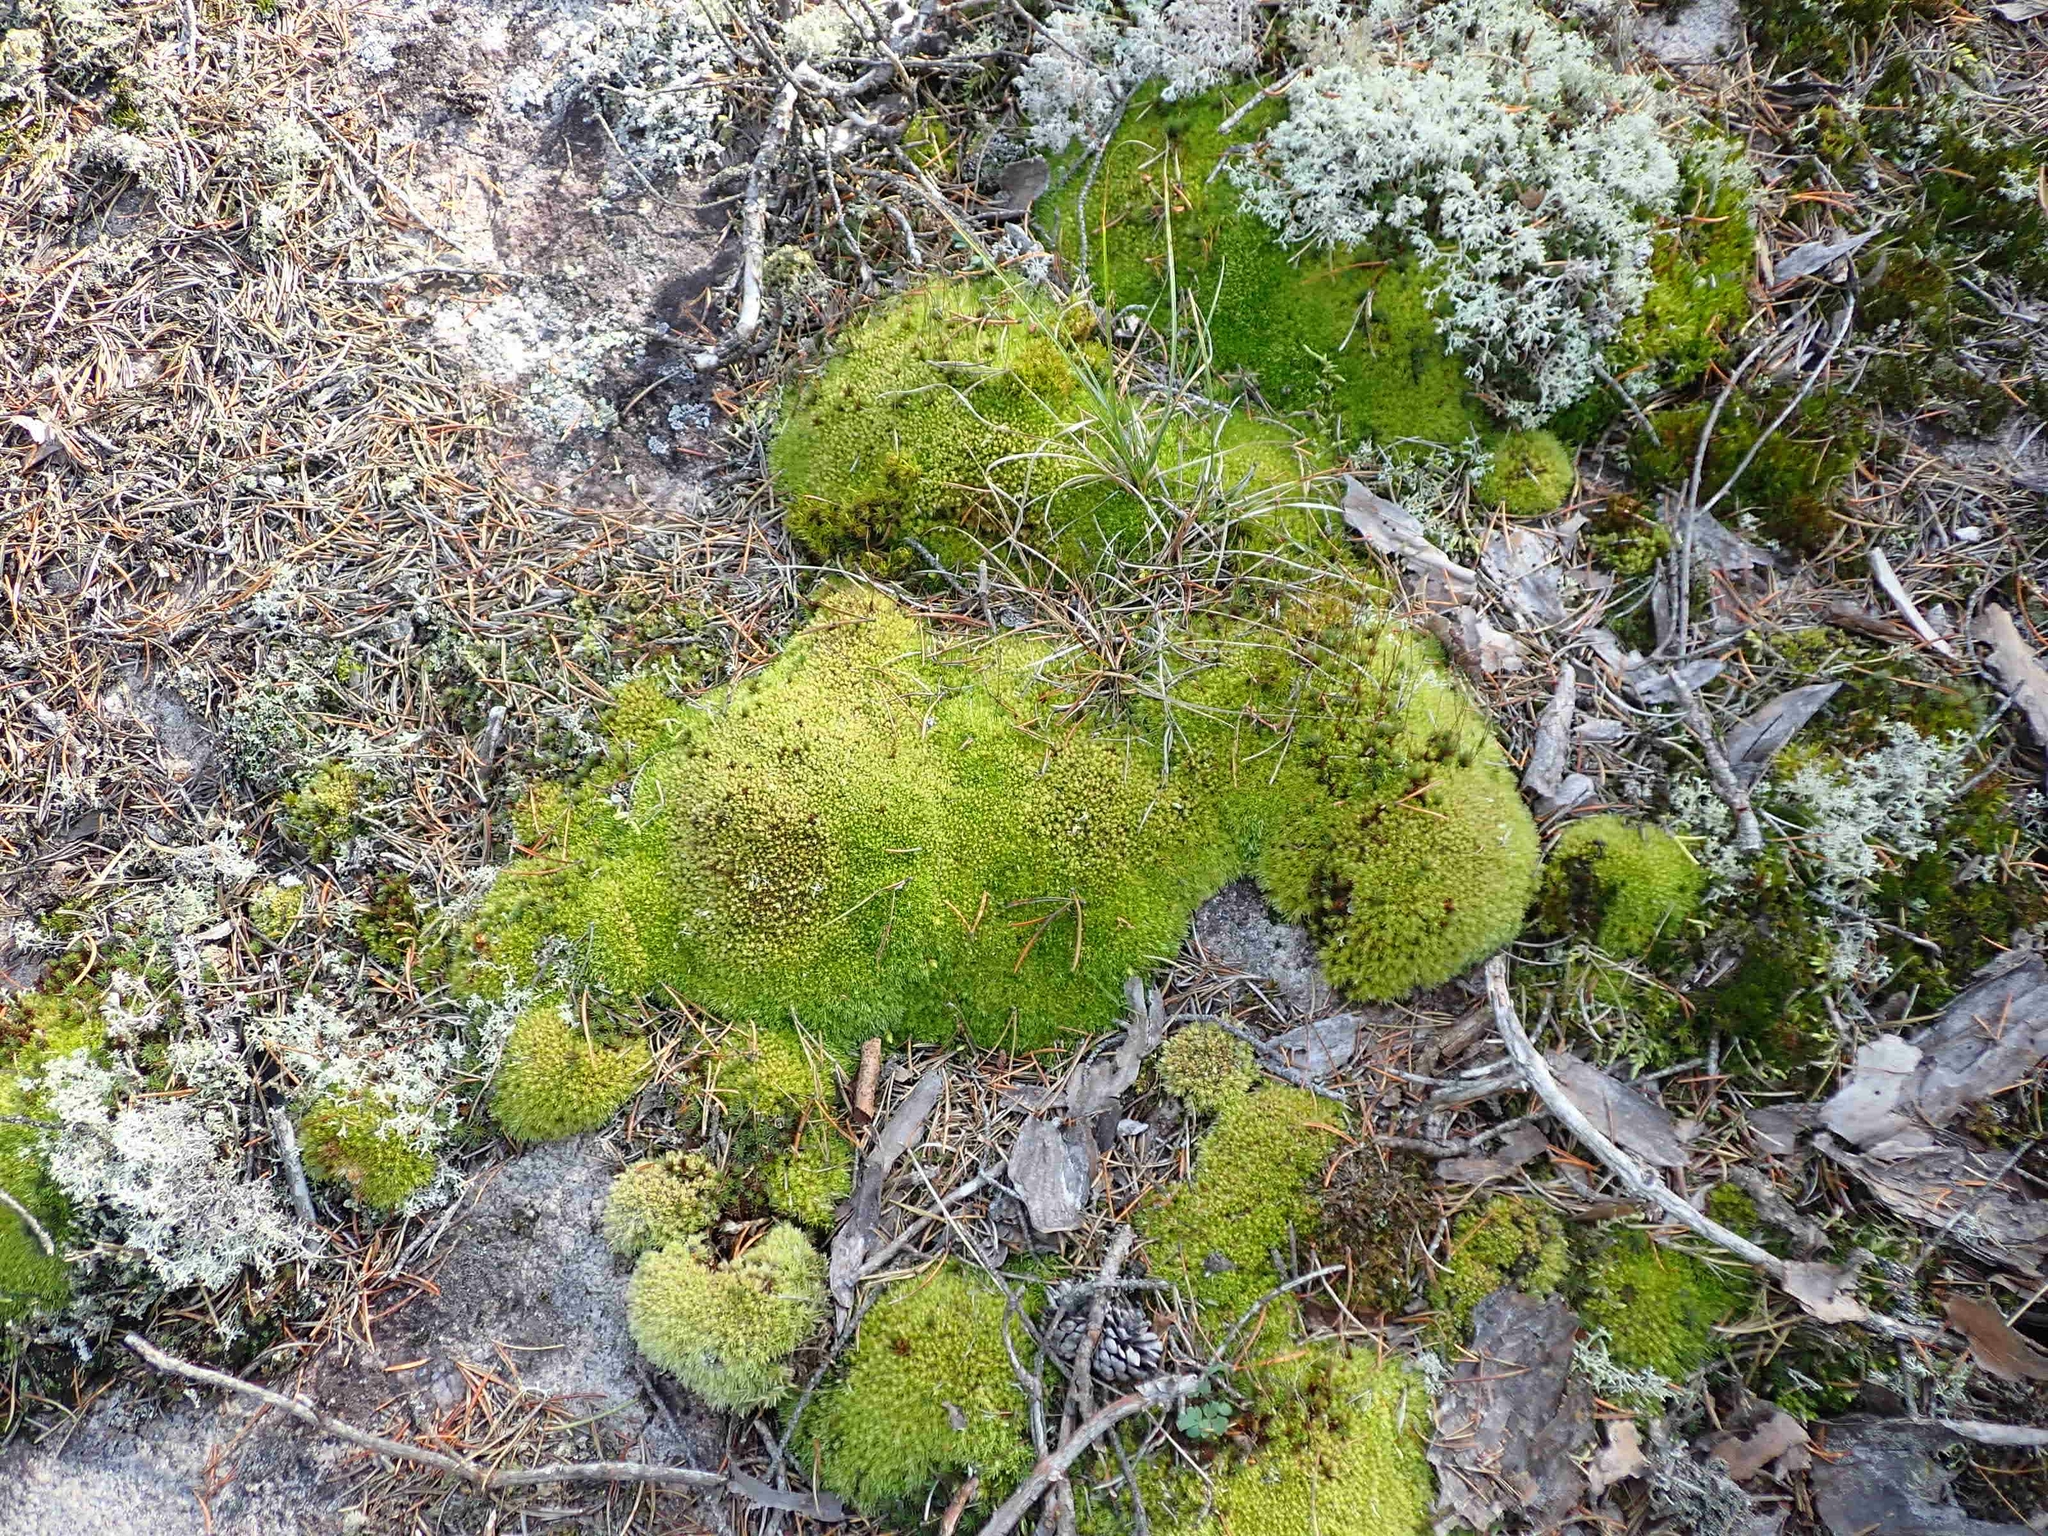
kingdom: Plantae
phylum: Bryophyta
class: Bryopsida
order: Dicranales
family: Leucobryaceae
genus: Leucobryum
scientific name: Leucobryum glaucum
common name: Large white-moss
